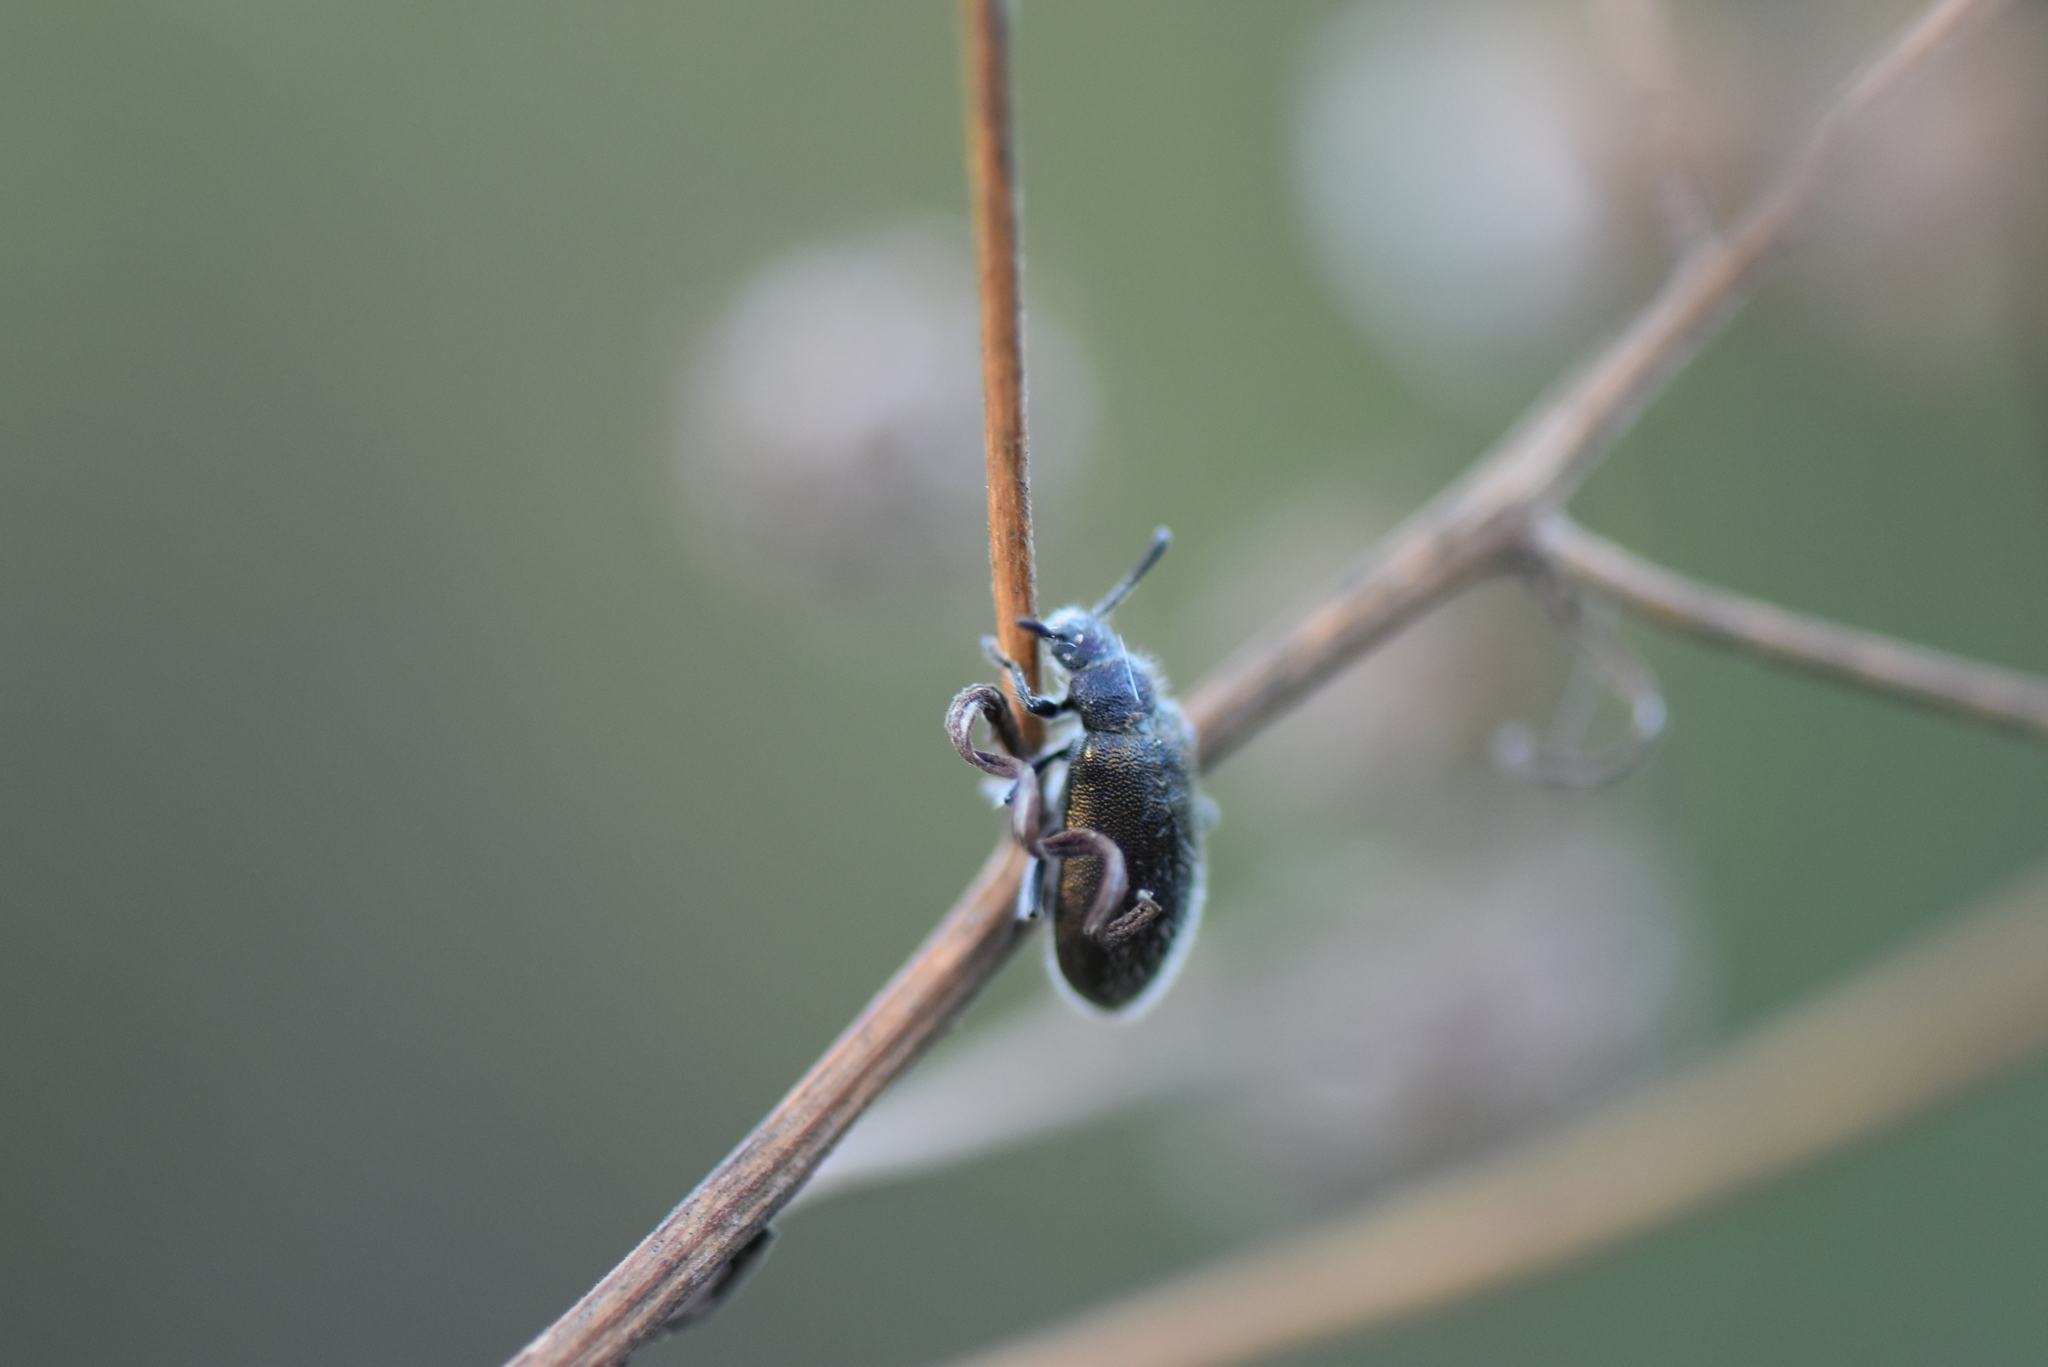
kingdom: Animalia
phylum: Arthropoda
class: Insecta
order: Coleoptera
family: Tenebrionidae
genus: Lagria
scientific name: Lagria villosa
